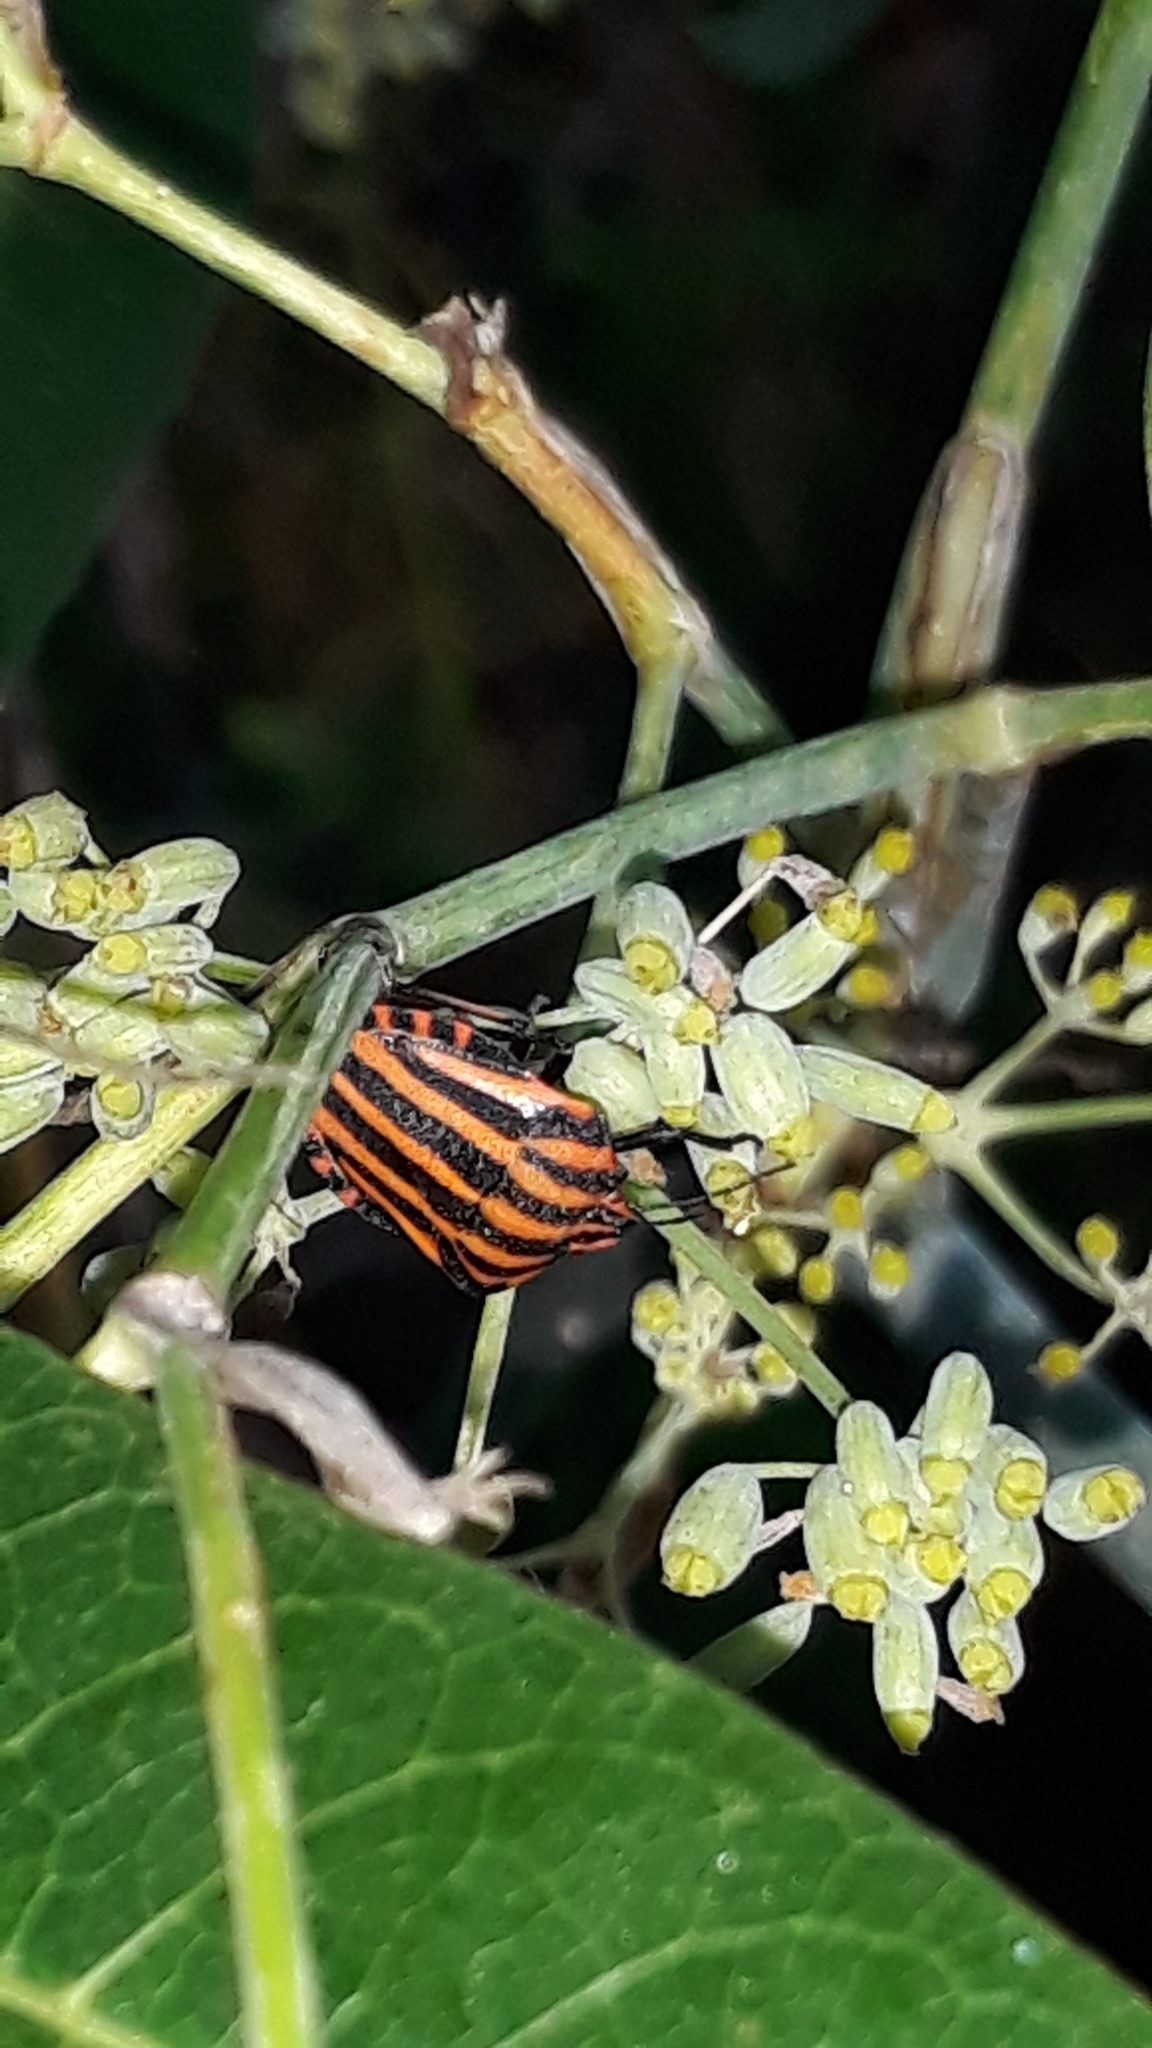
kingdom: Animalia
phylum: Arthropoda
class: Insecta
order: Hemiptera
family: Pentatomidae
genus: Graphosoma
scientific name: Graphosoma italicum
